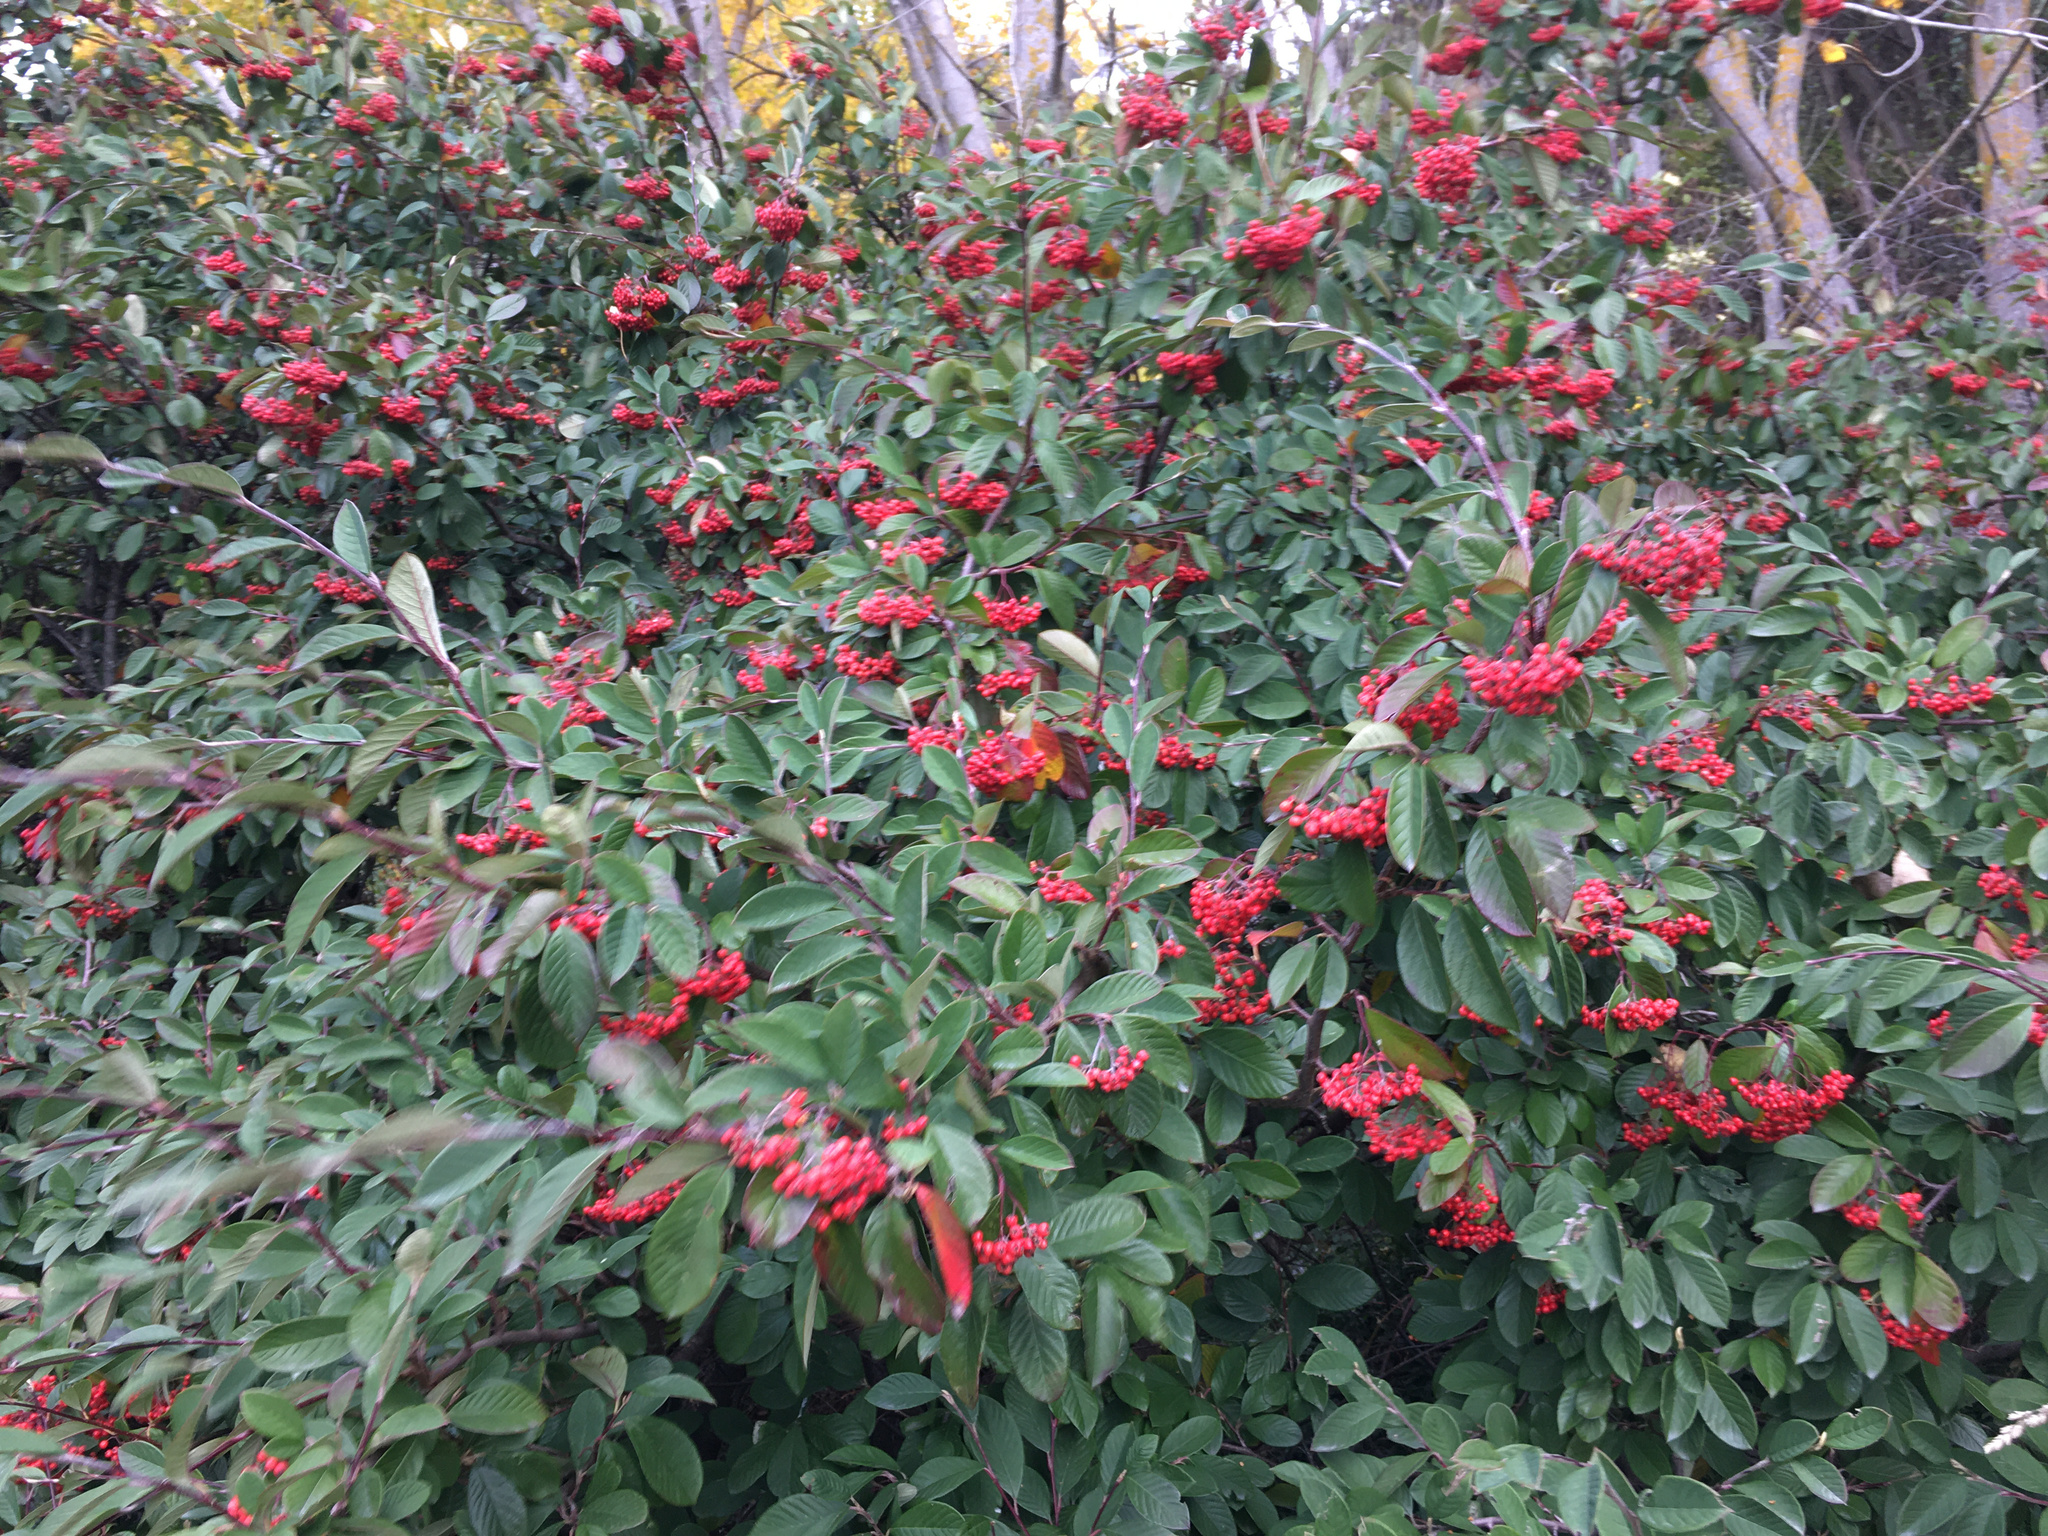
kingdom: Plantae
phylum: Tracheophyta
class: Magnoliopsida
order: Rosales
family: Rosaceae
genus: Cotoneaster
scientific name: Cotoneaster coriaceus
